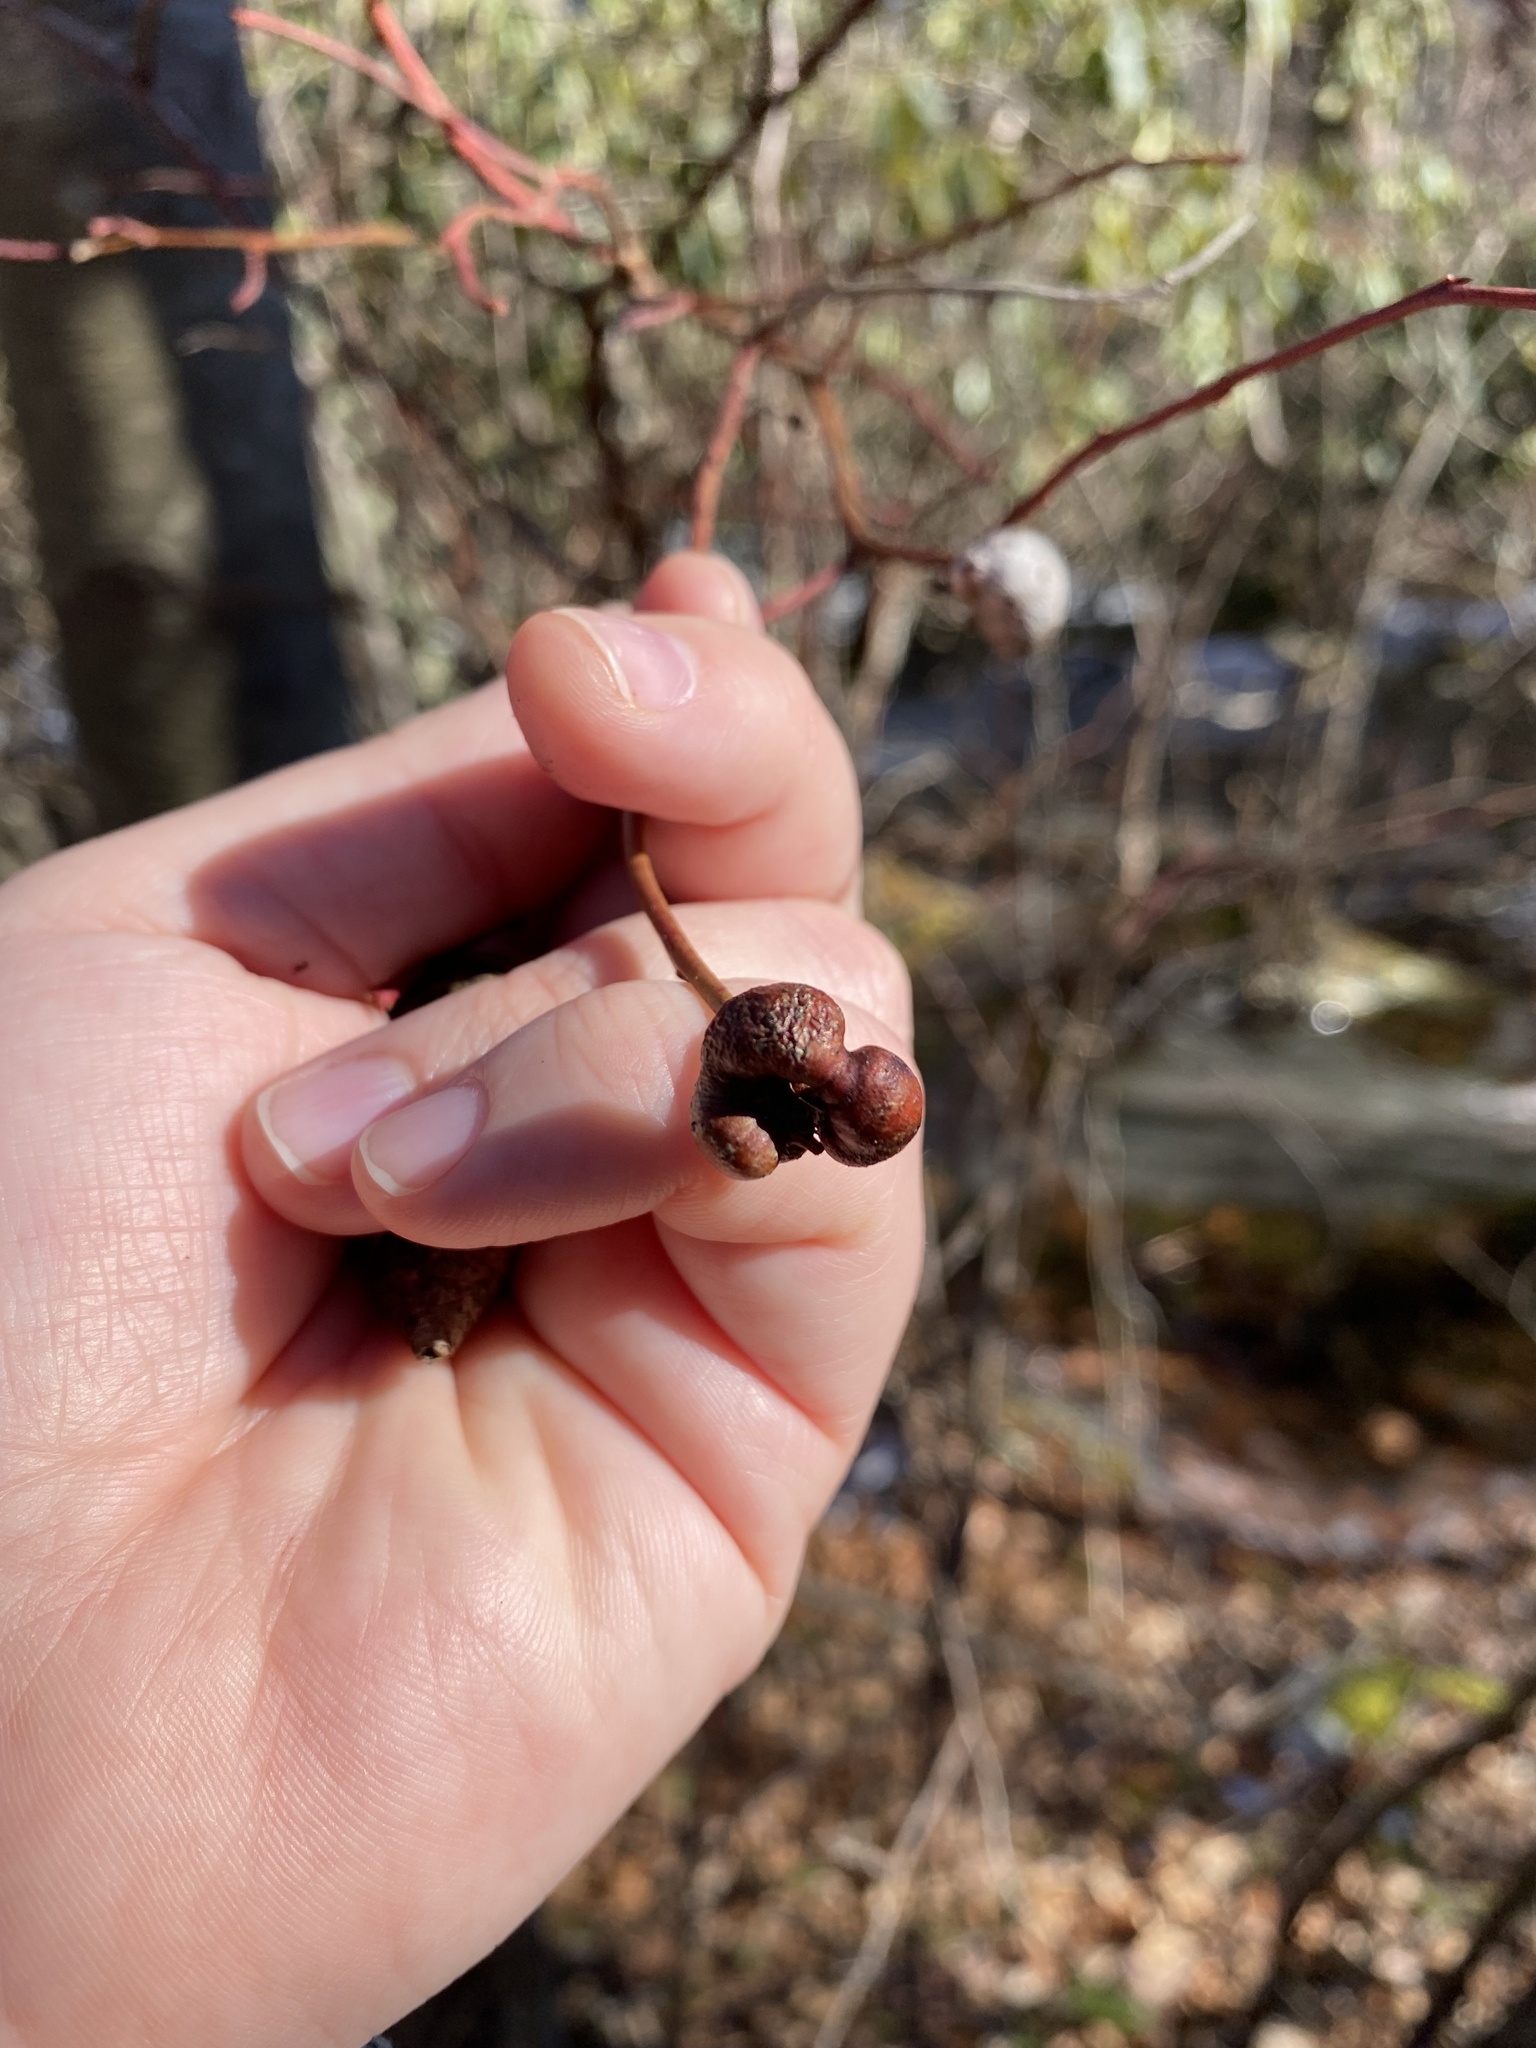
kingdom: Animalia
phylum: Arthropoda
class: Insecta
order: Hymenoptera
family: Pteromalidae
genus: Hemadas
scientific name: Hemadas nubilipennis
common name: Blueberry stem gall wasp
